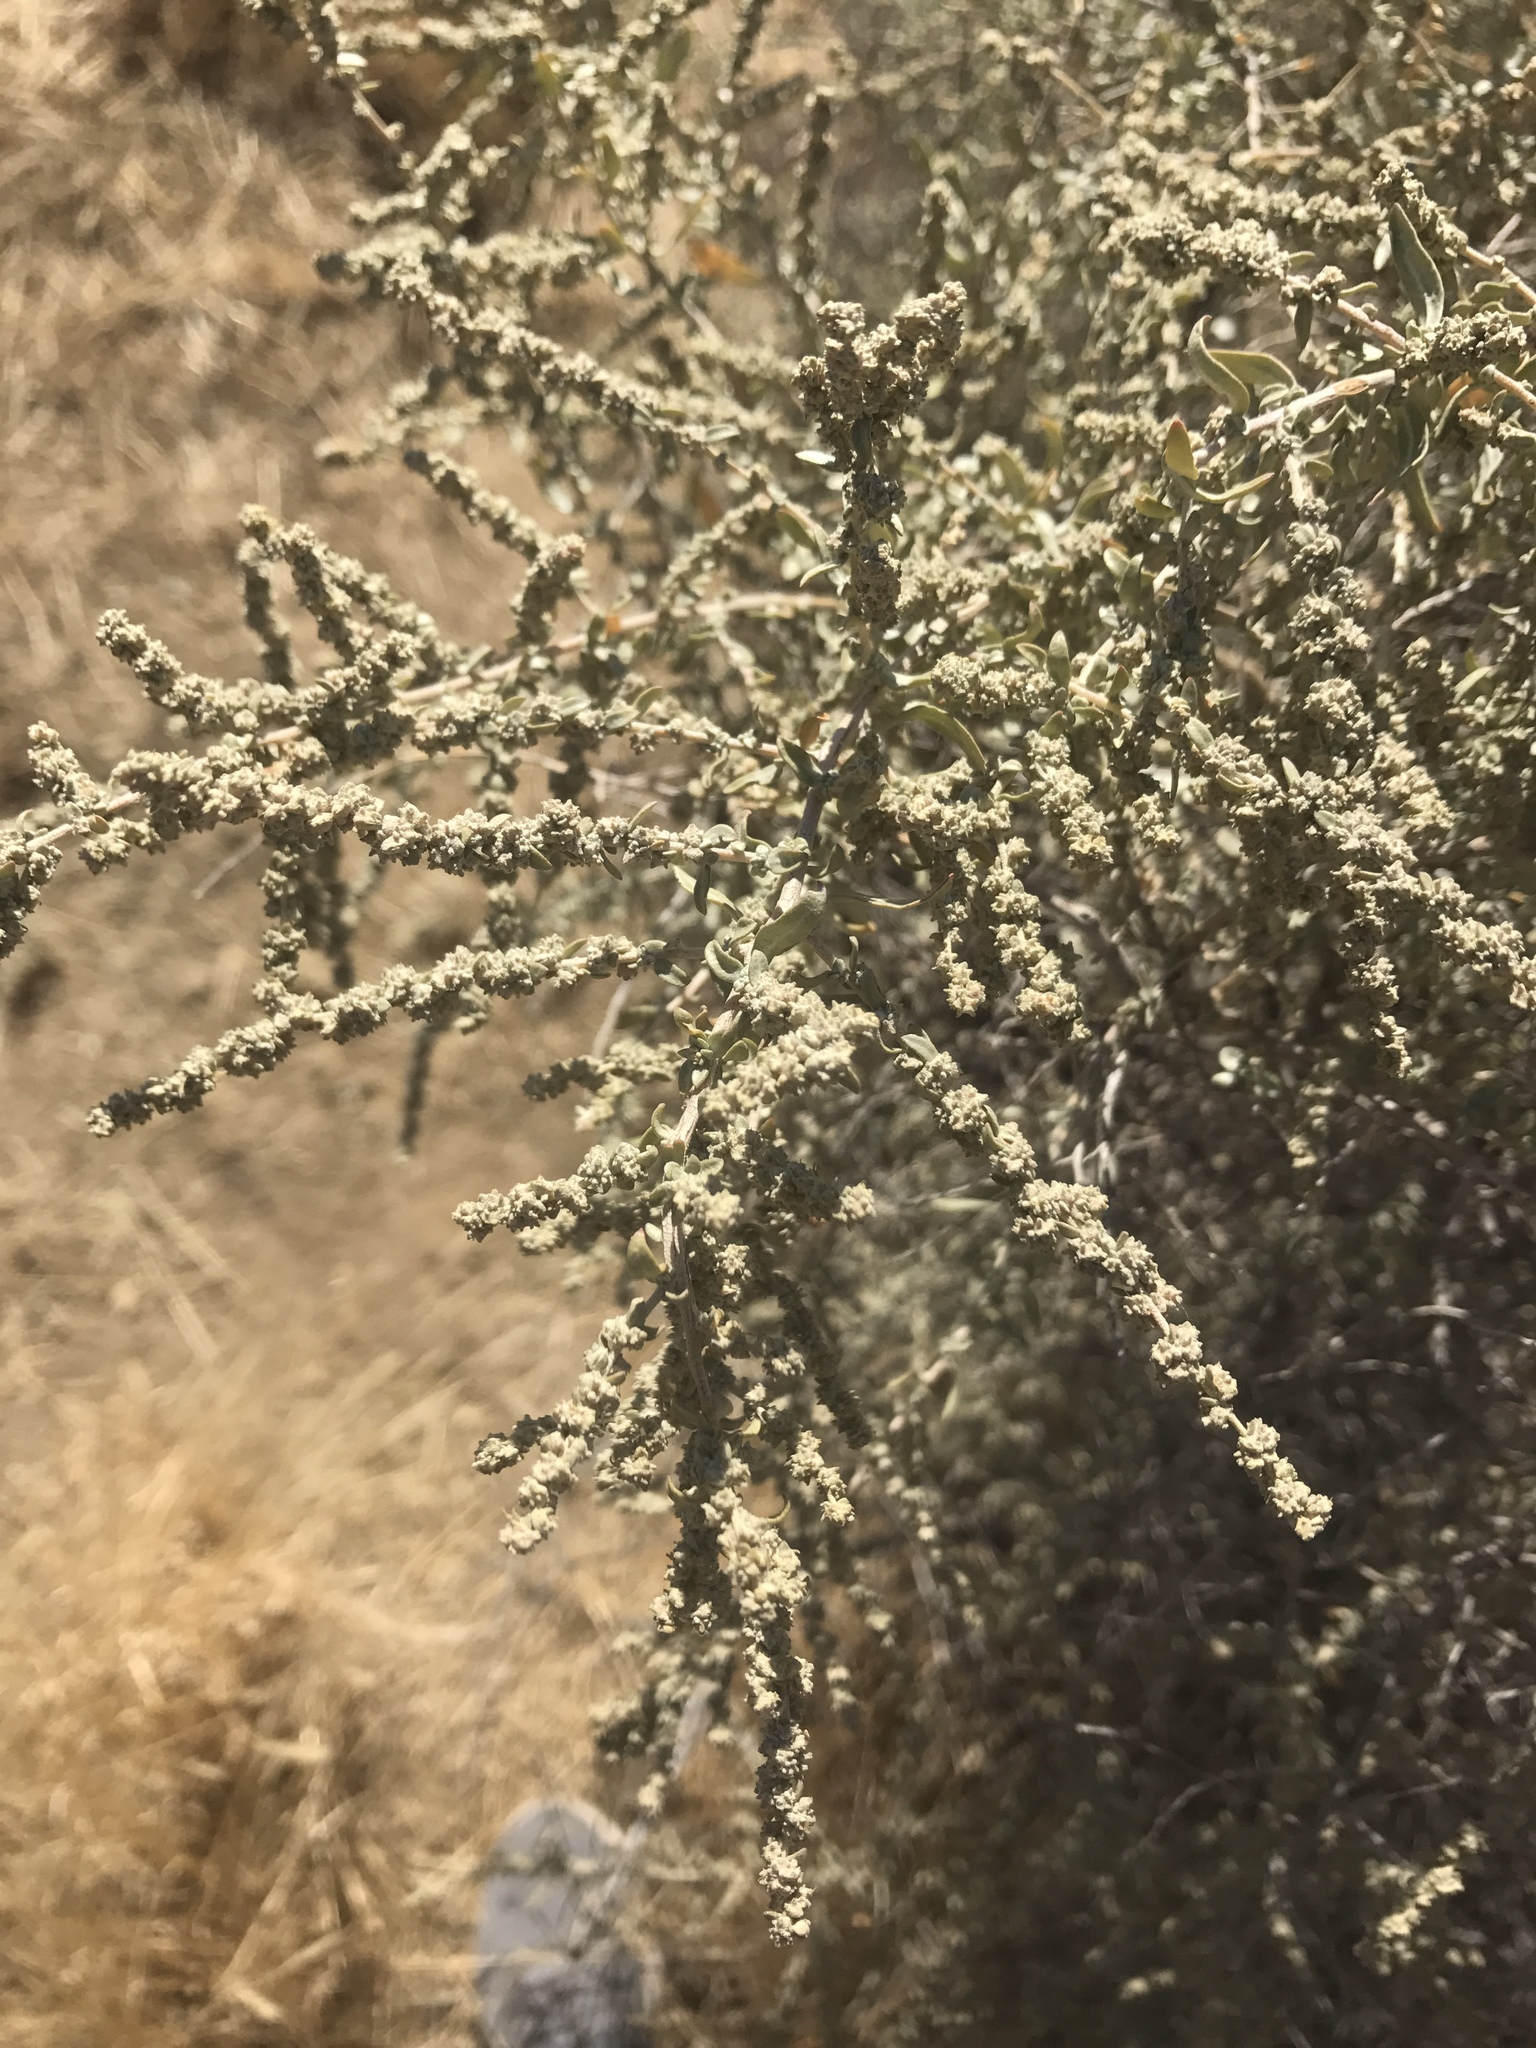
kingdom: Plantae
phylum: Tracheophyta
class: Magnoliopsida
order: Caryophyllales
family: Amaranthaceae
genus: Atriplex
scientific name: Atriplex polycarpa
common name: Desert saltbush
